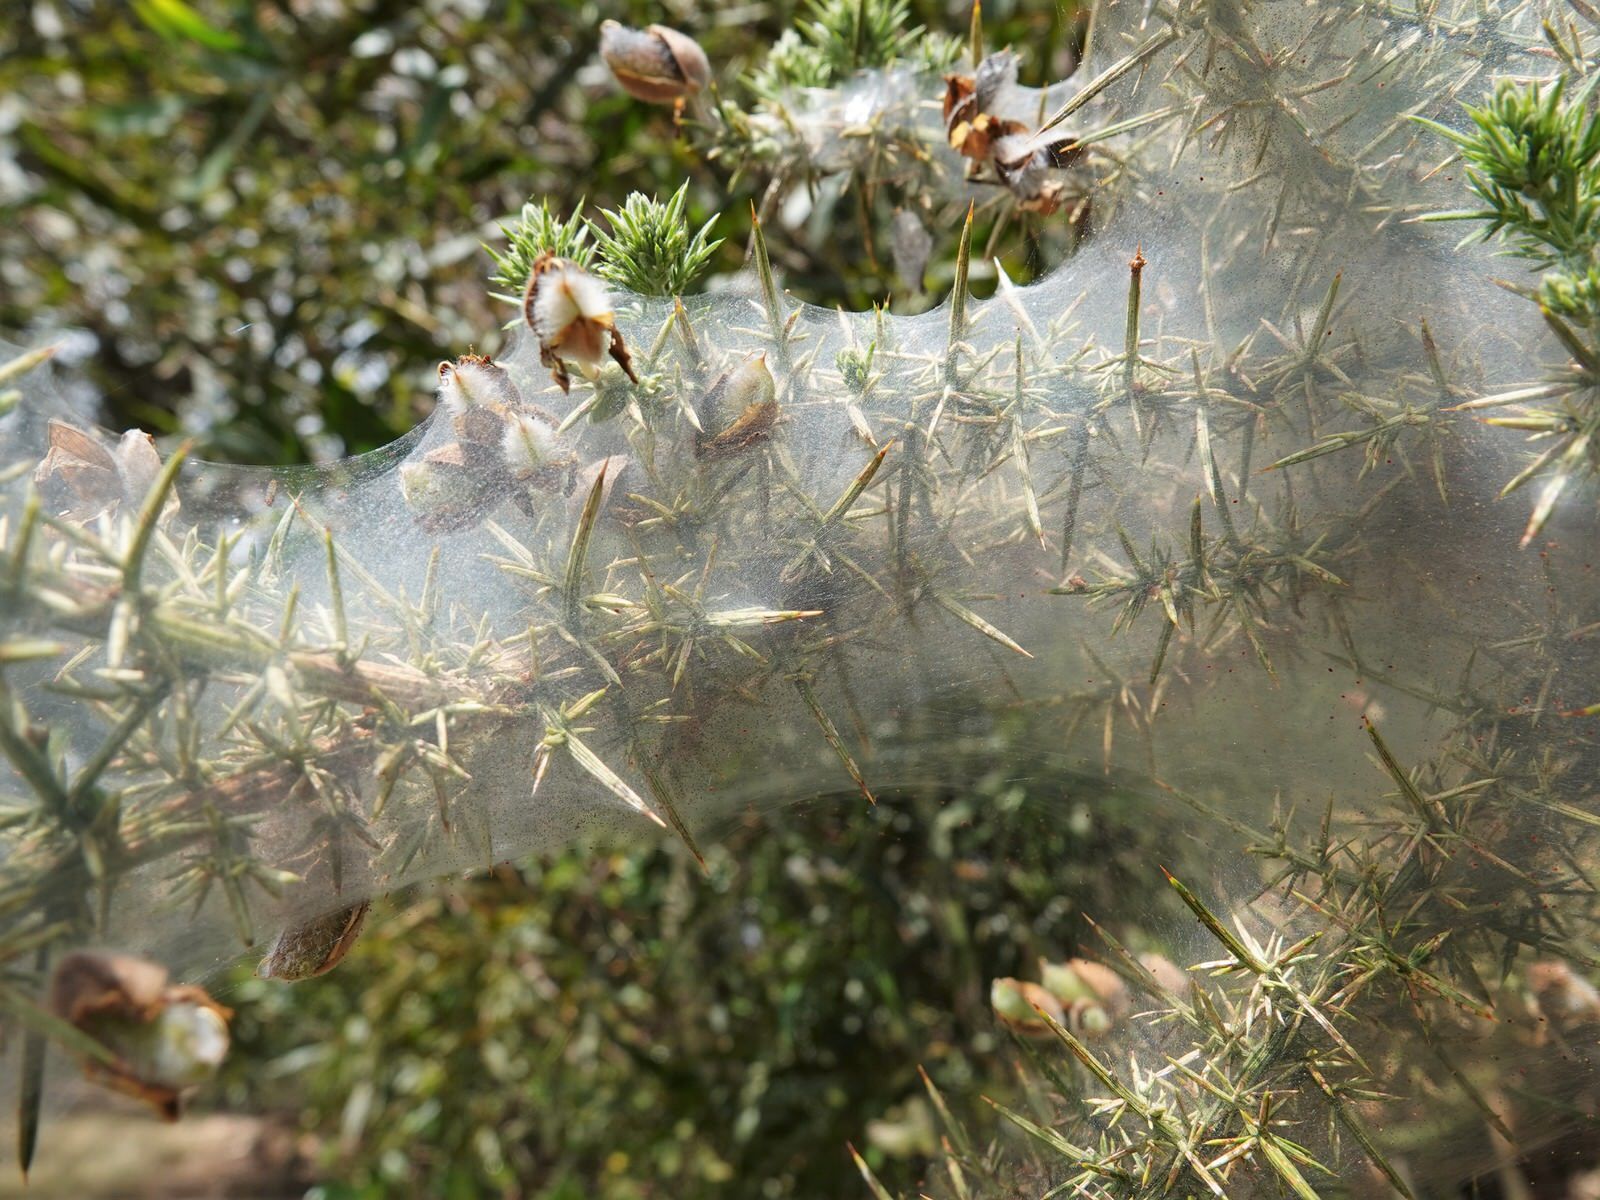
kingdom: Animalia
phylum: Arthropoda
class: Arachnida
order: Trombidiformes
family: Tetranychidae
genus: Tetranychus
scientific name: Tetranychus lintearius
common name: Gorse spider mite
